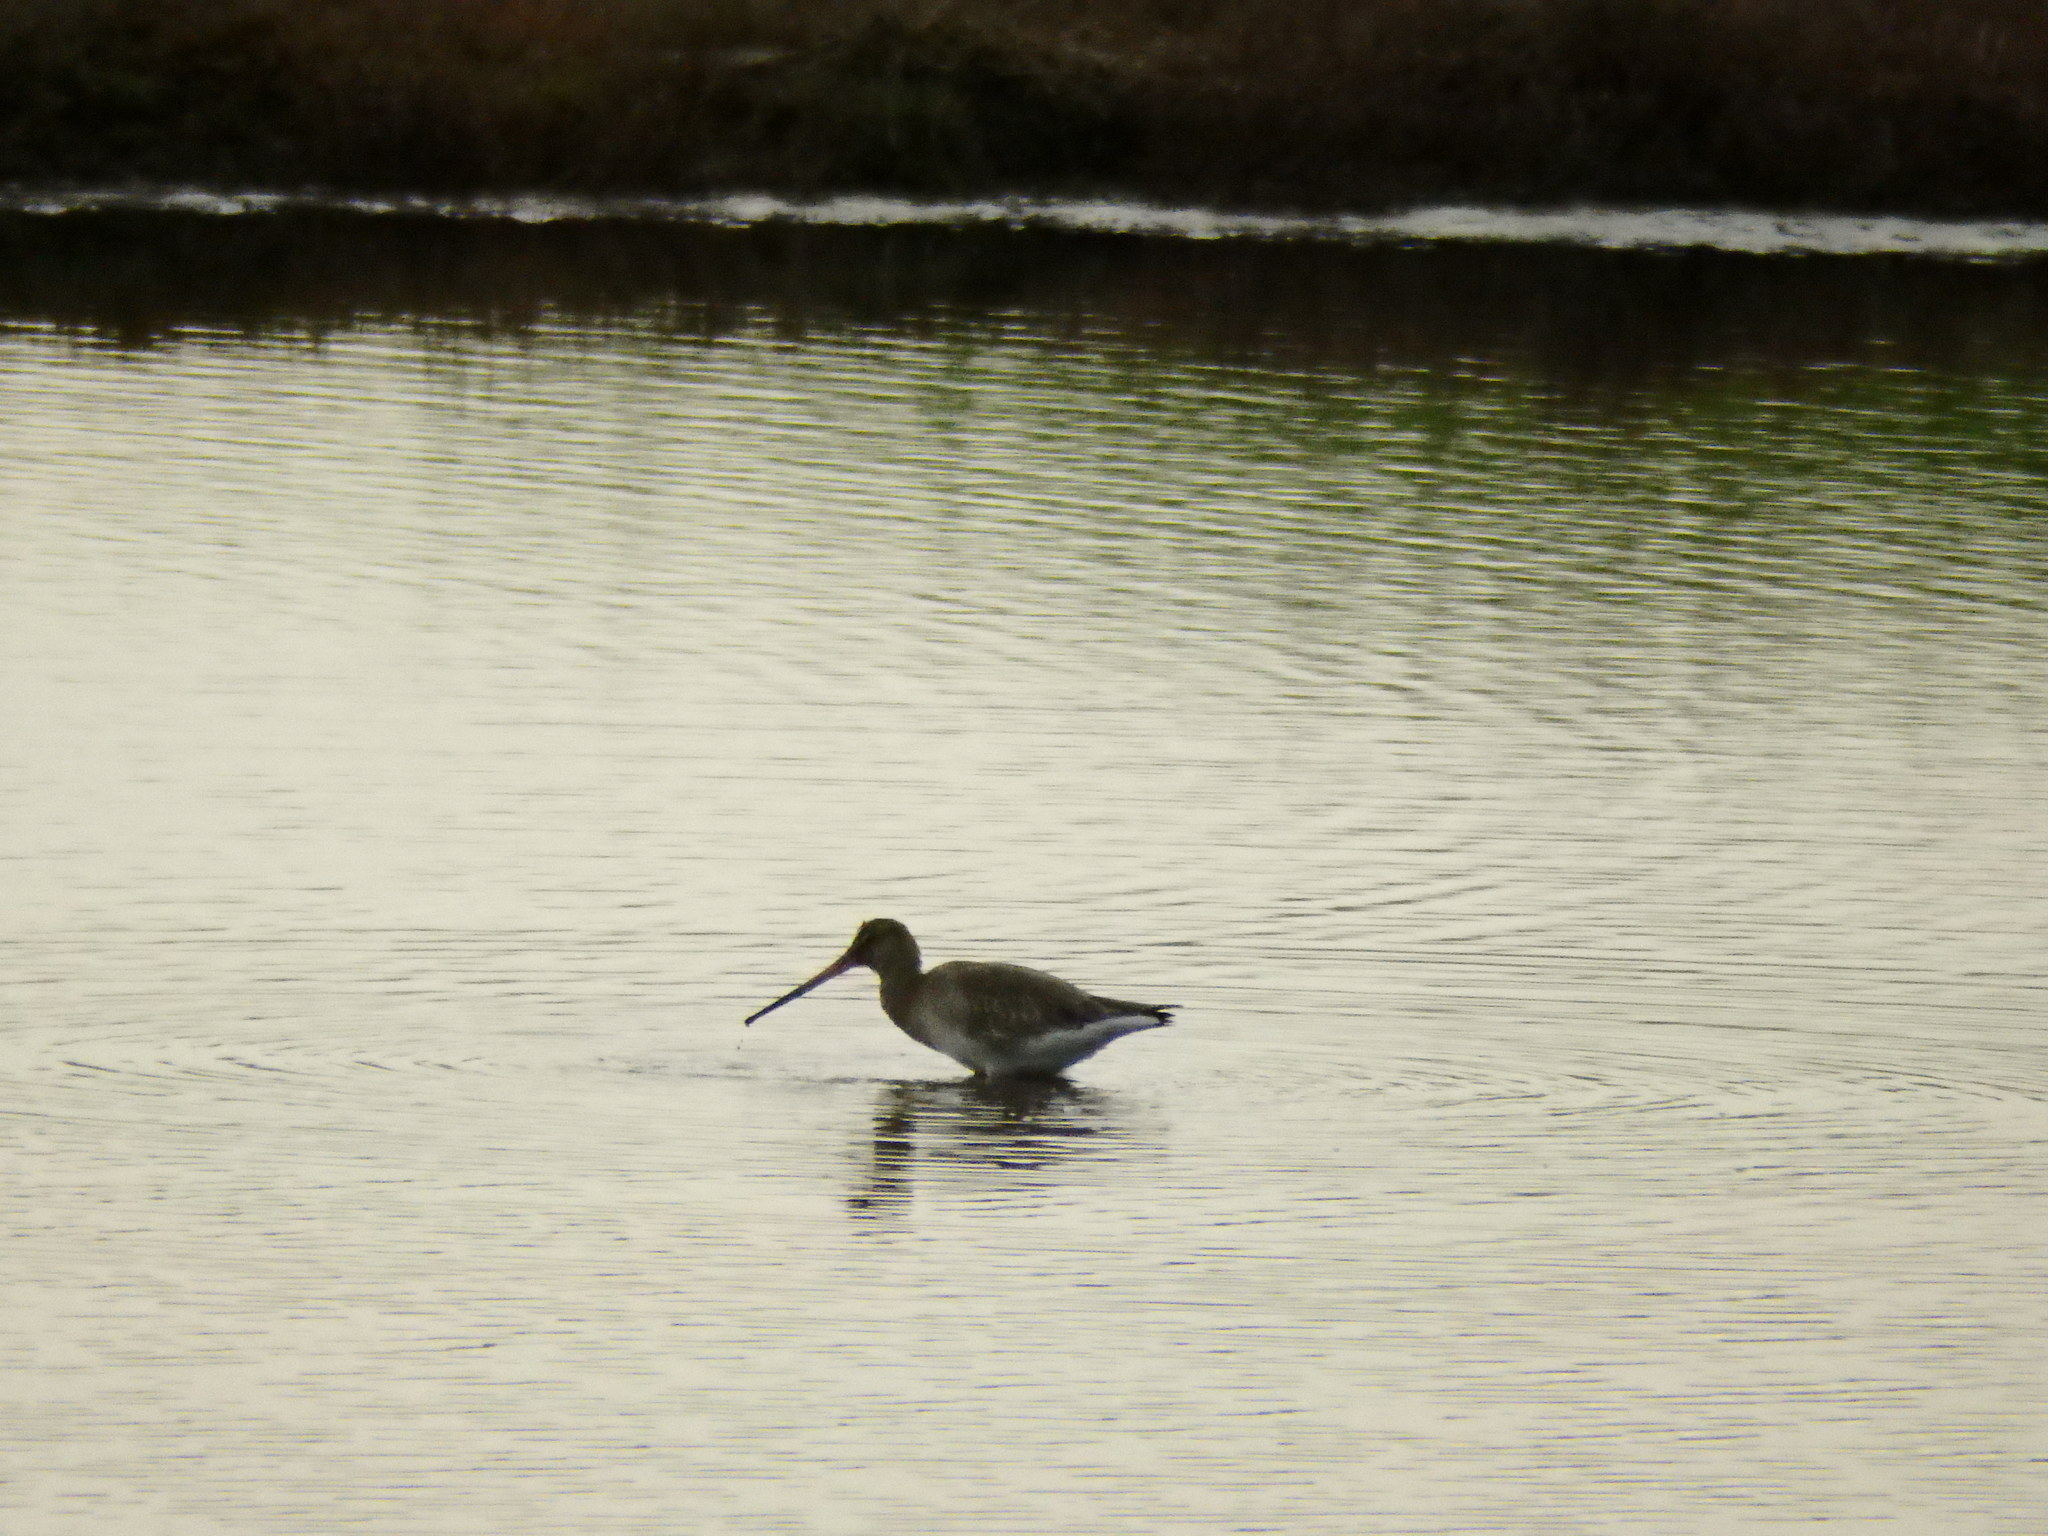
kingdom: Animalia
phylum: Chordata
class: Aves
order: Charadriiformes
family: Scolopacidae
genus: Limosa
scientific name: Limosa limosa
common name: Black-tailed godwit
